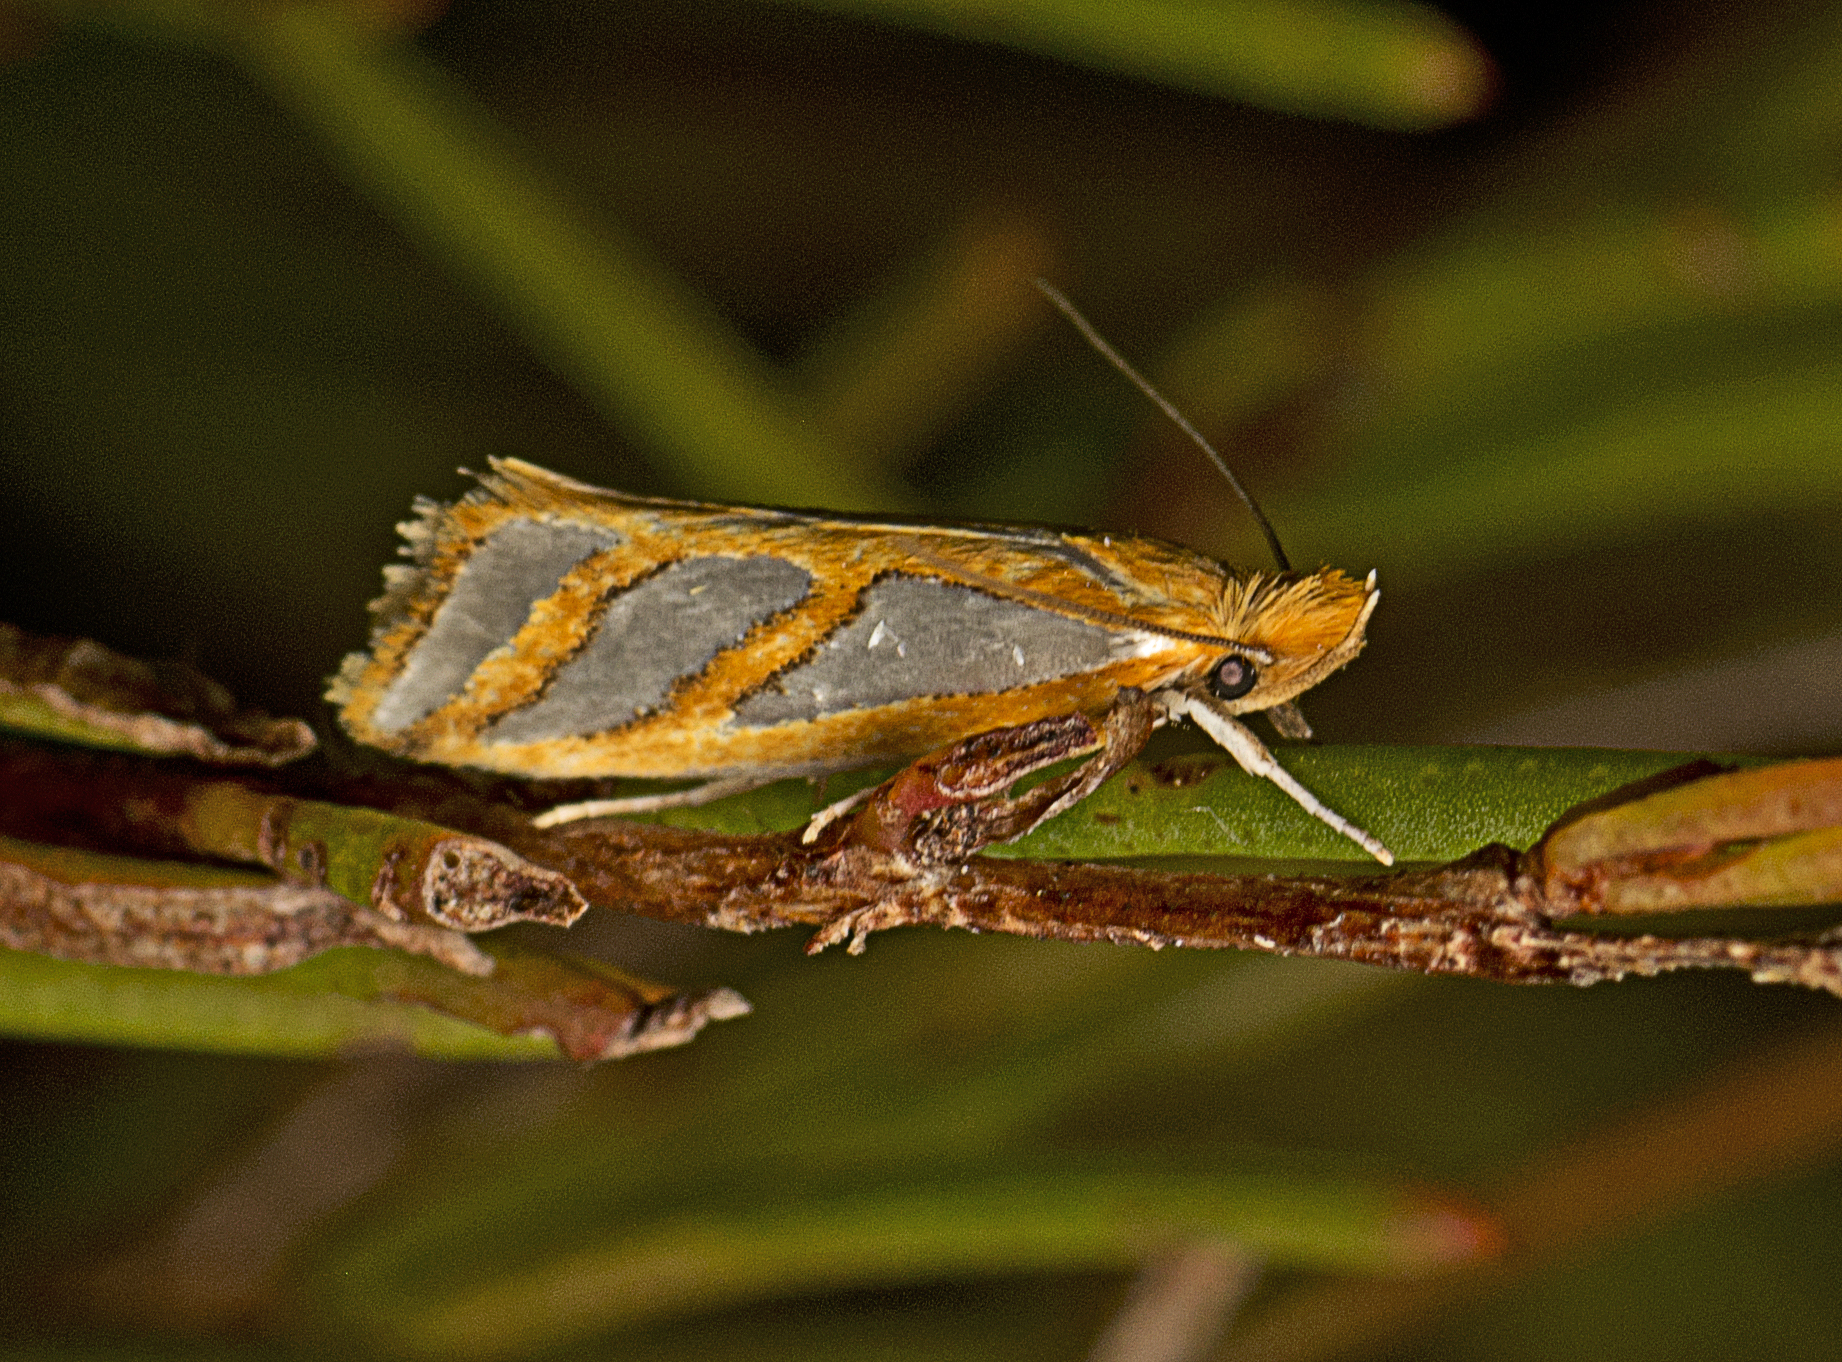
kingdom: Animalia
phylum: Arthropoda
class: Insecta
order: Lepidoptera
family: Depressariidae
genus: Thudaca
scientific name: Thudaca obliquella
